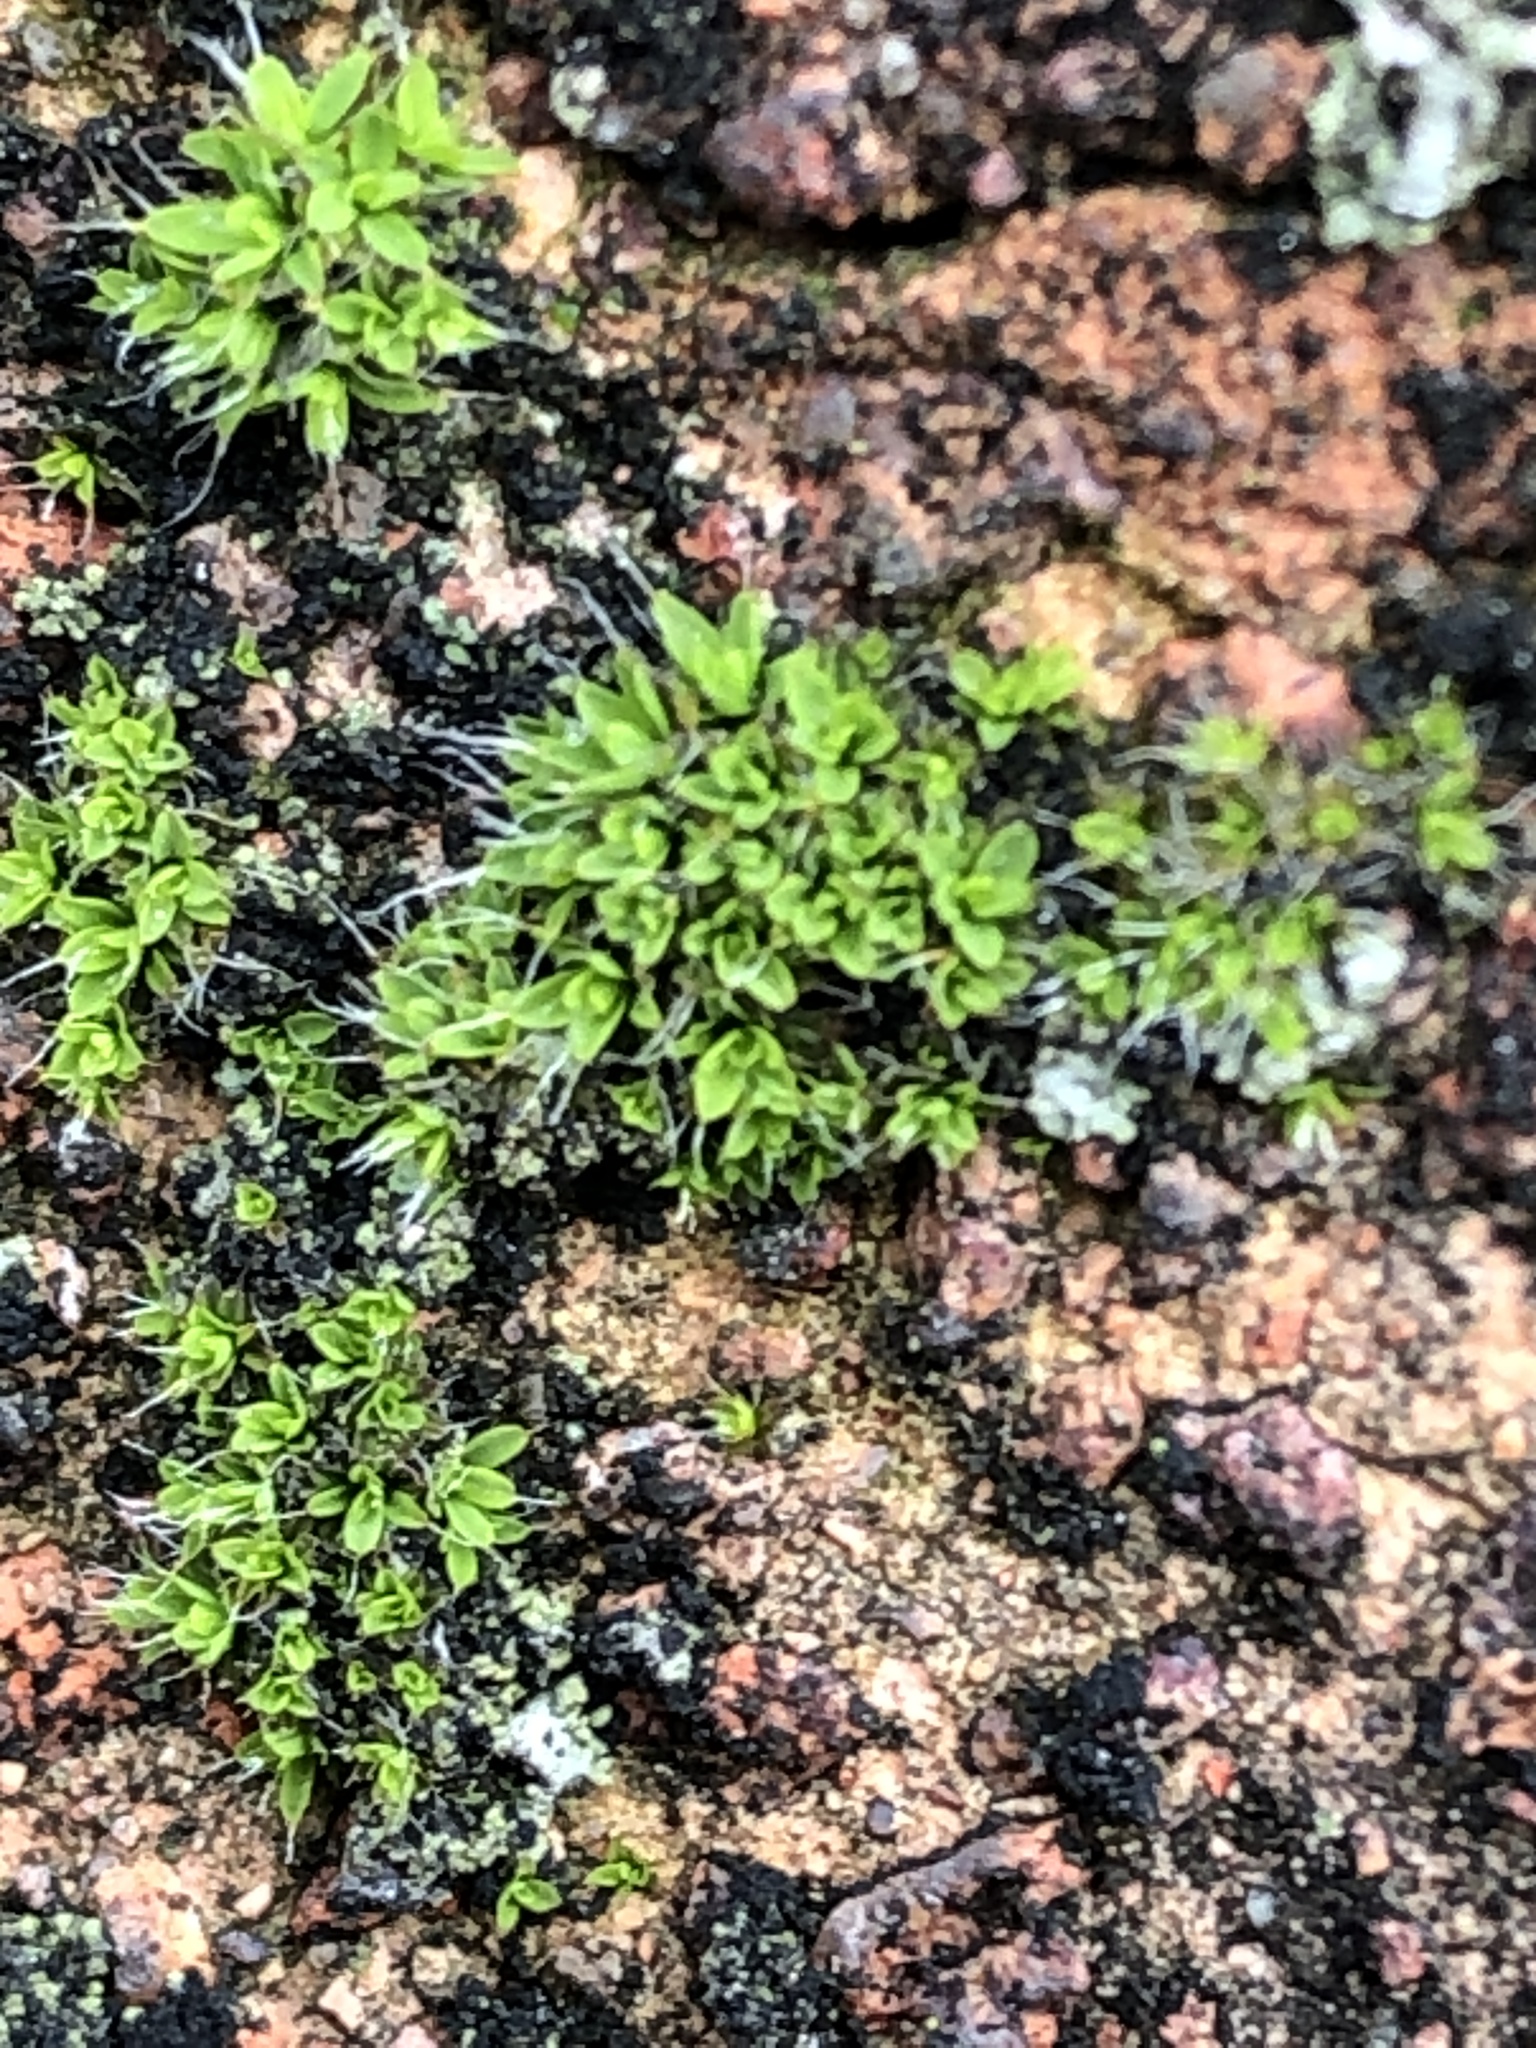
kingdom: Plantae
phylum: Bryophyta
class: Bryopsida
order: Pottiales
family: Pottiaceae
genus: Tortula
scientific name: Tortula muralis
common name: Wall screw-moss
